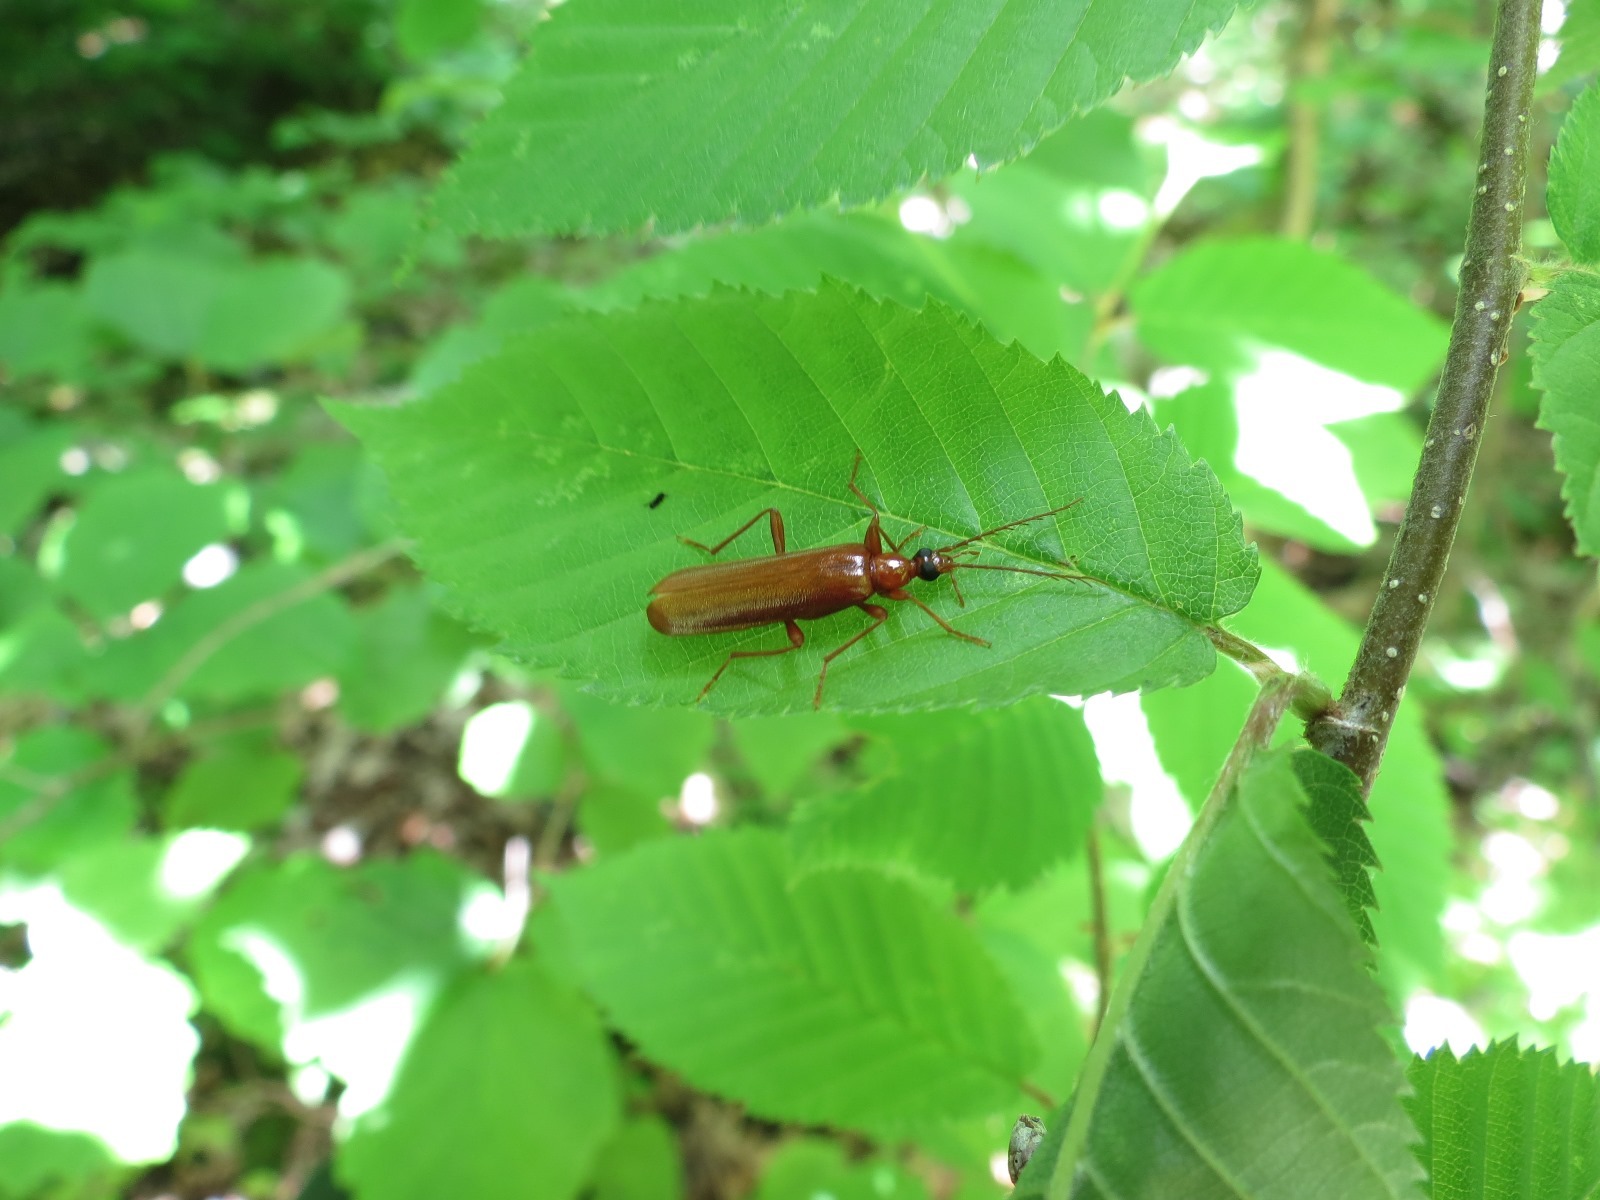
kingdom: Animalia
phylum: Arthropoda
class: Insecta
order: Coleoptera
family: Pyrochroidae
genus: Dendroides
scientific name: Dendroides concolor
